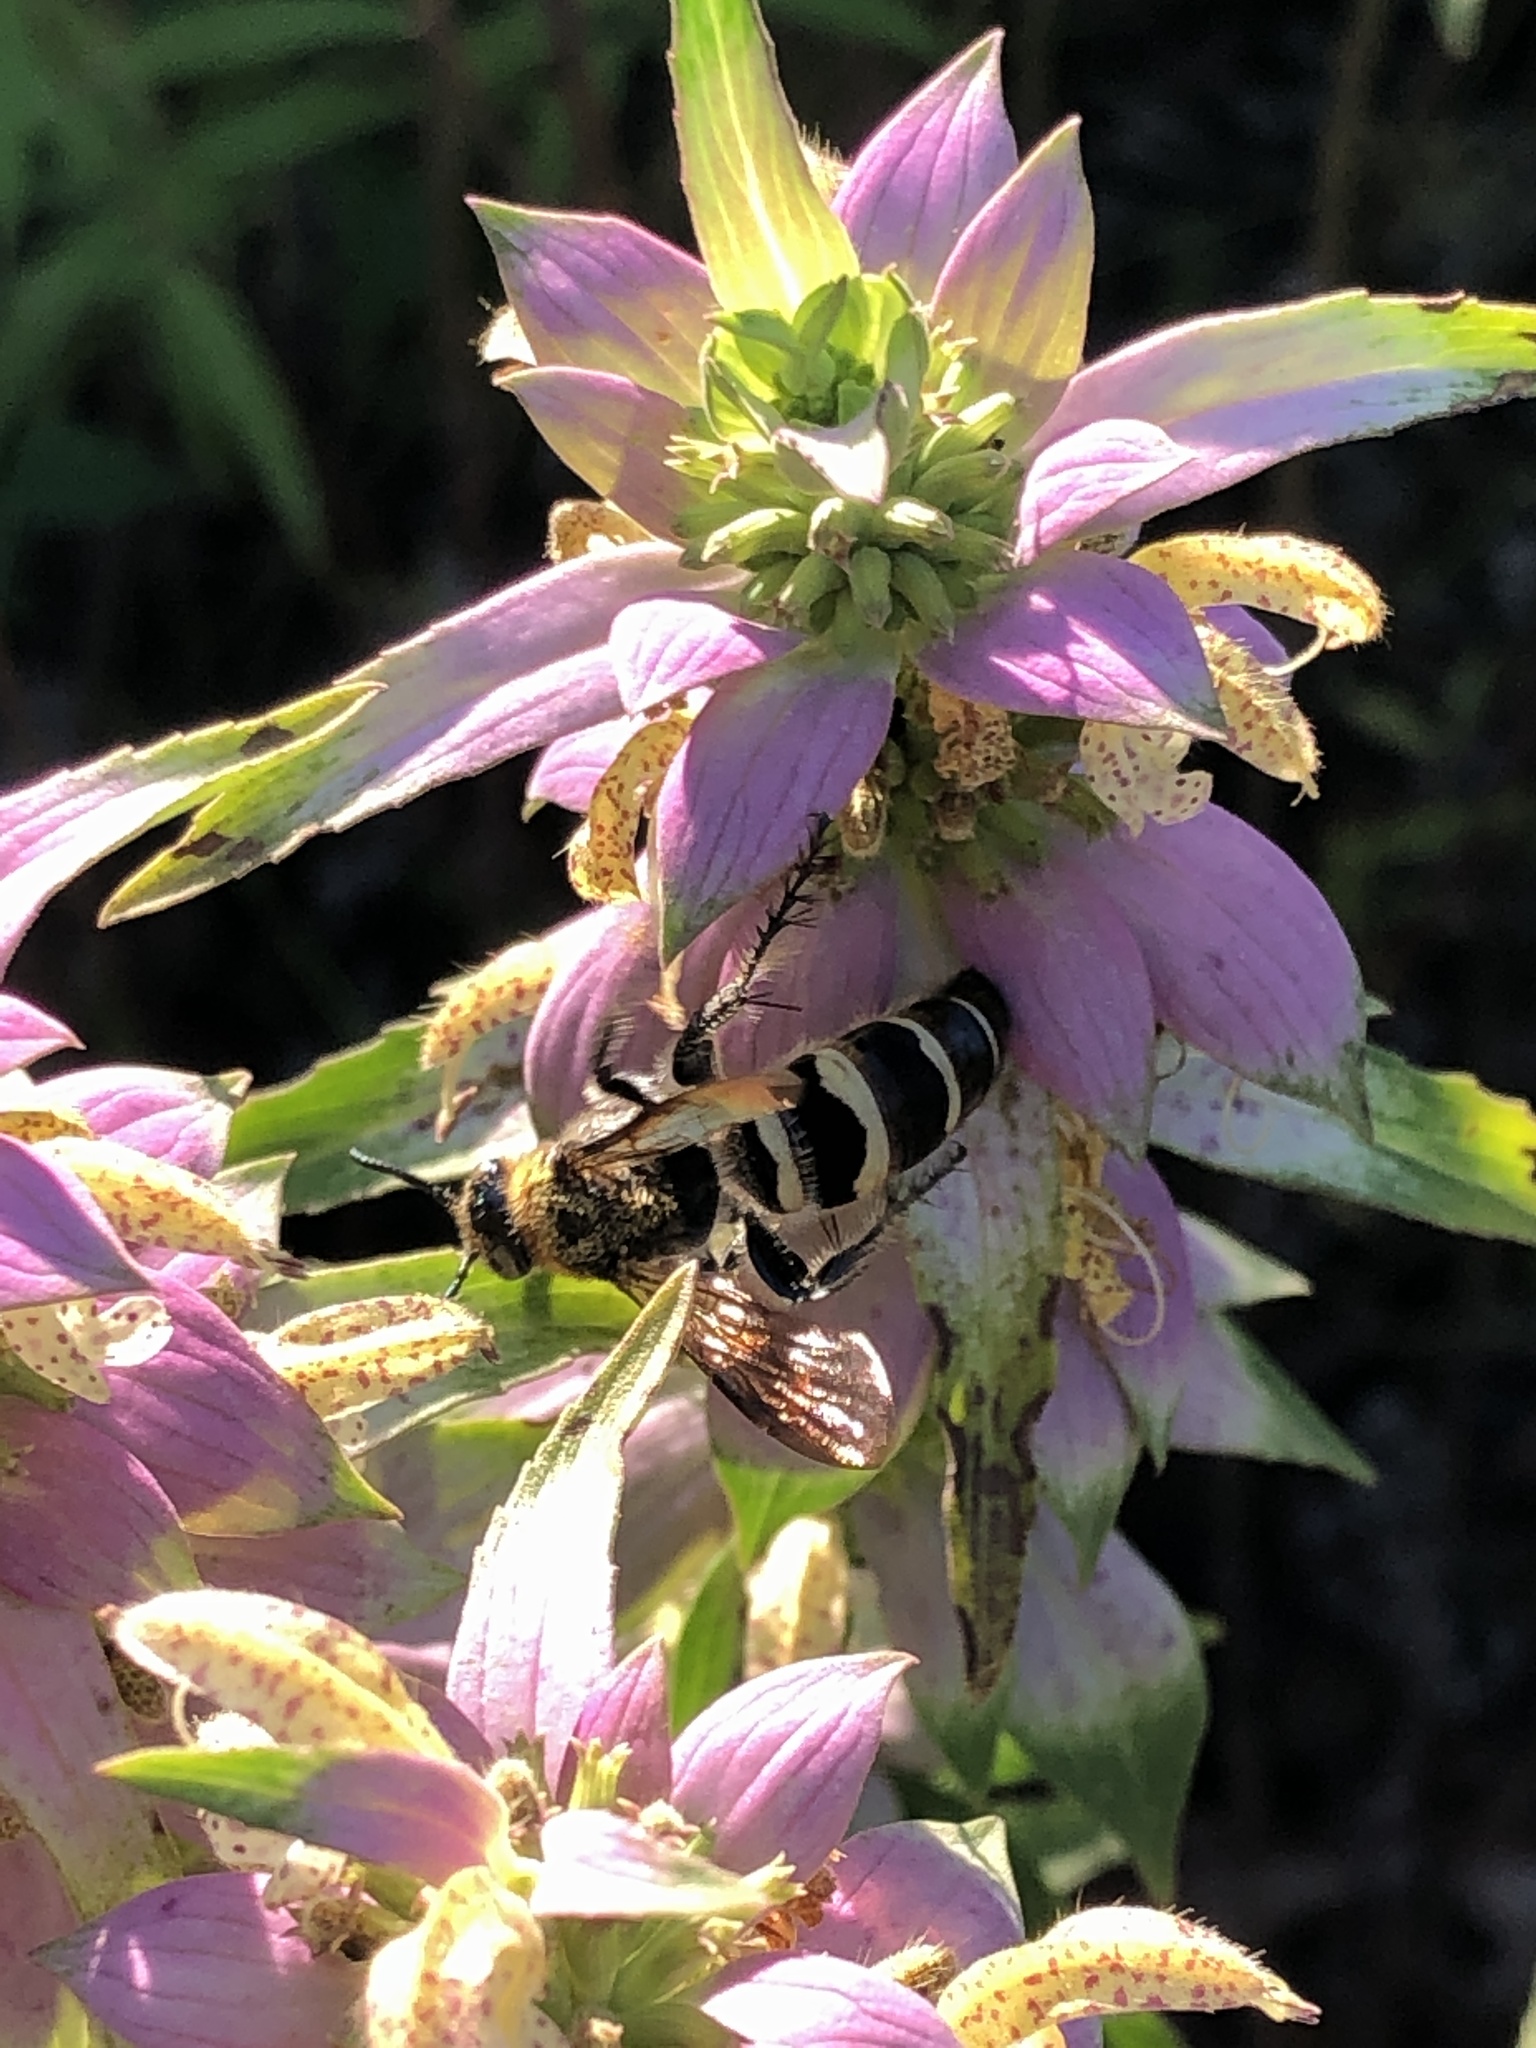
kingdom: Animalia
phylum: Arthropoda
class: Insecta
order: Hymenoptera
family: Scoliidae
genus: Dielis
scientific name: Dielis
